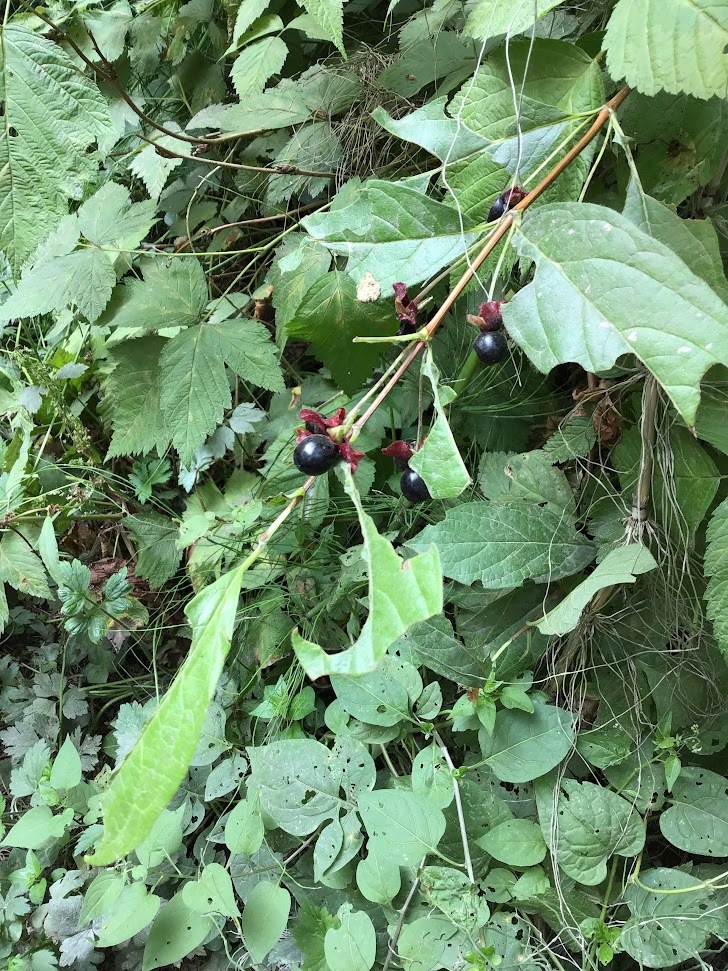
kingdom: Plantae
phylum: Tracheophyta
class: Magnoliopsida
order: Dipsacales
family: Caprifoliaceae
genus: Lonicera
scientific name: Lonicera involucrata
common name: Californian honeysuckle
